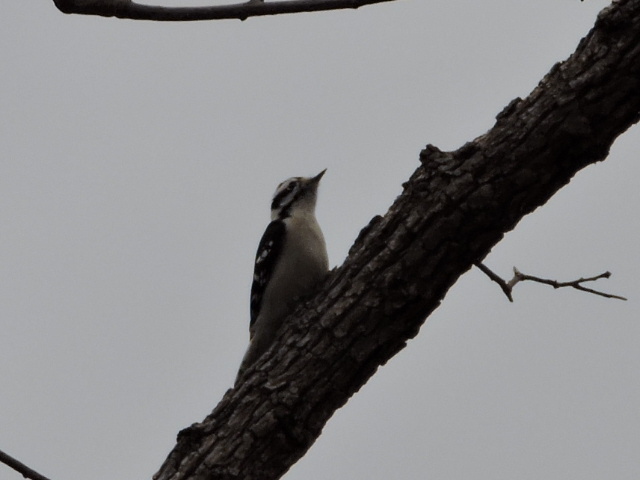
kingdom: Animalia
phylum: Chordata
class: Aves
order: Piciformes
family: Picidae
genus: Dryobates
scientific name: Dryobates pubescens
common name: Downy woodpecker
